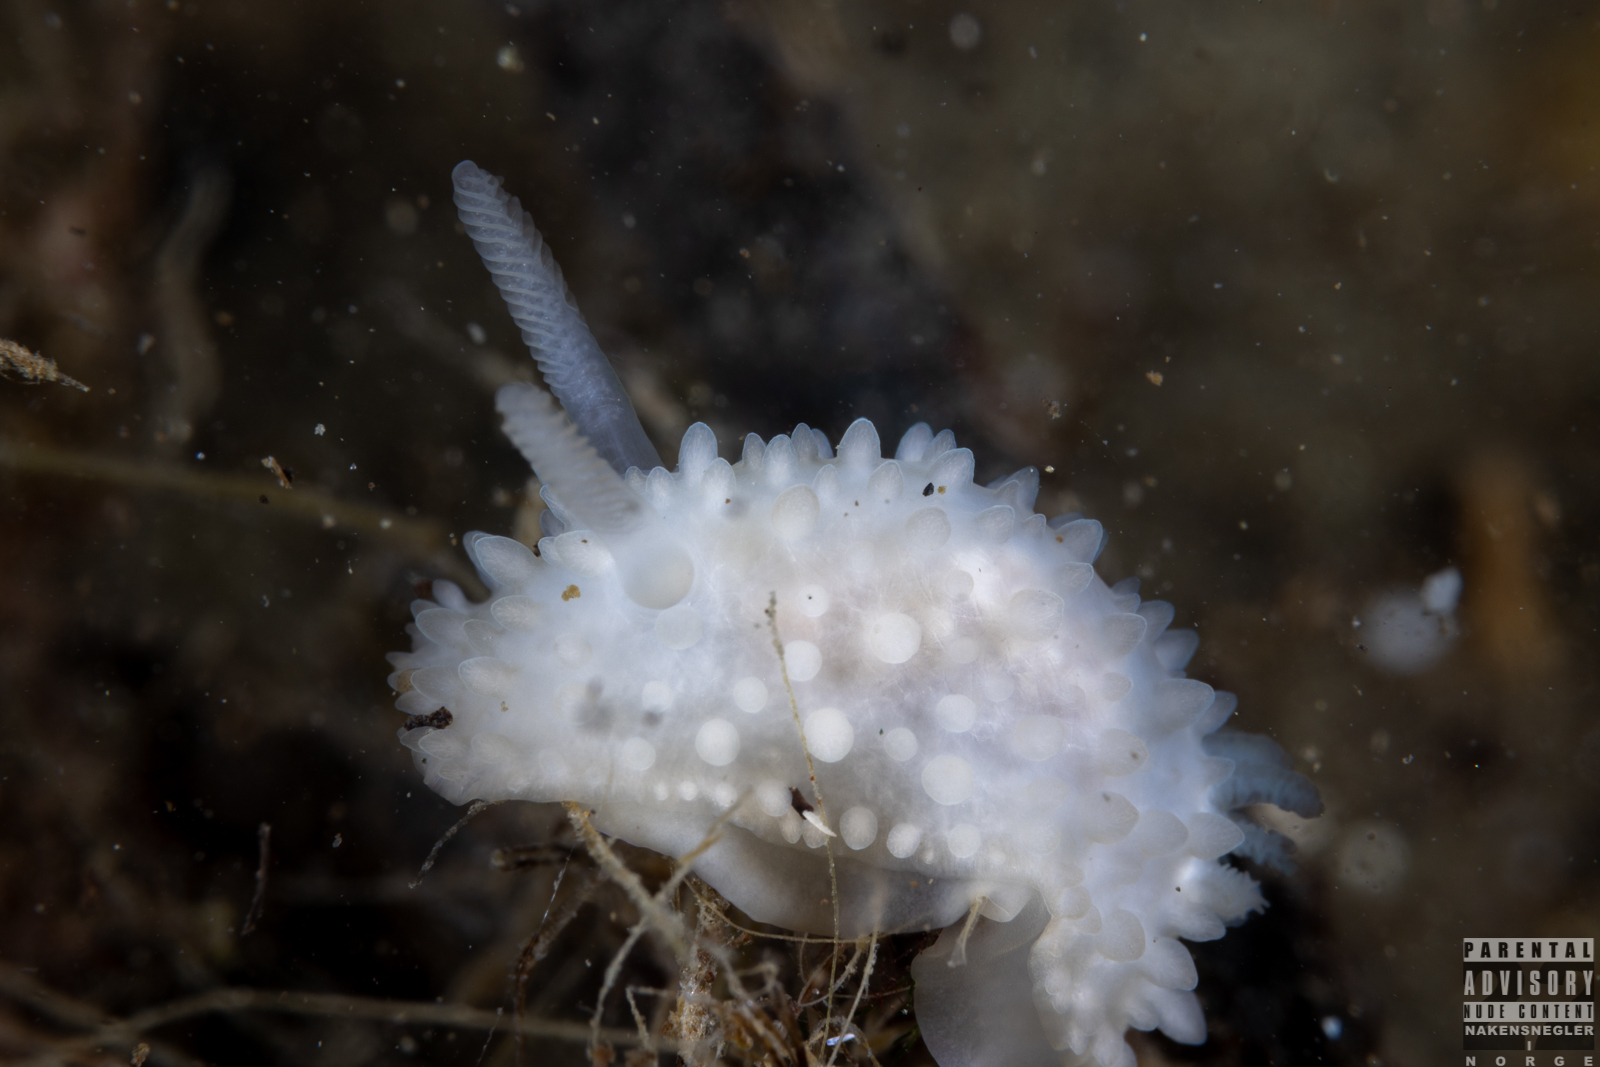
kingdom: Animalia
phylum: Mollusca
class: Gastropoda
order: Nudibranchia
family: Onchidorididae
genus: Adalaria
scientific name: Adalaria proxima
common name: False doris
